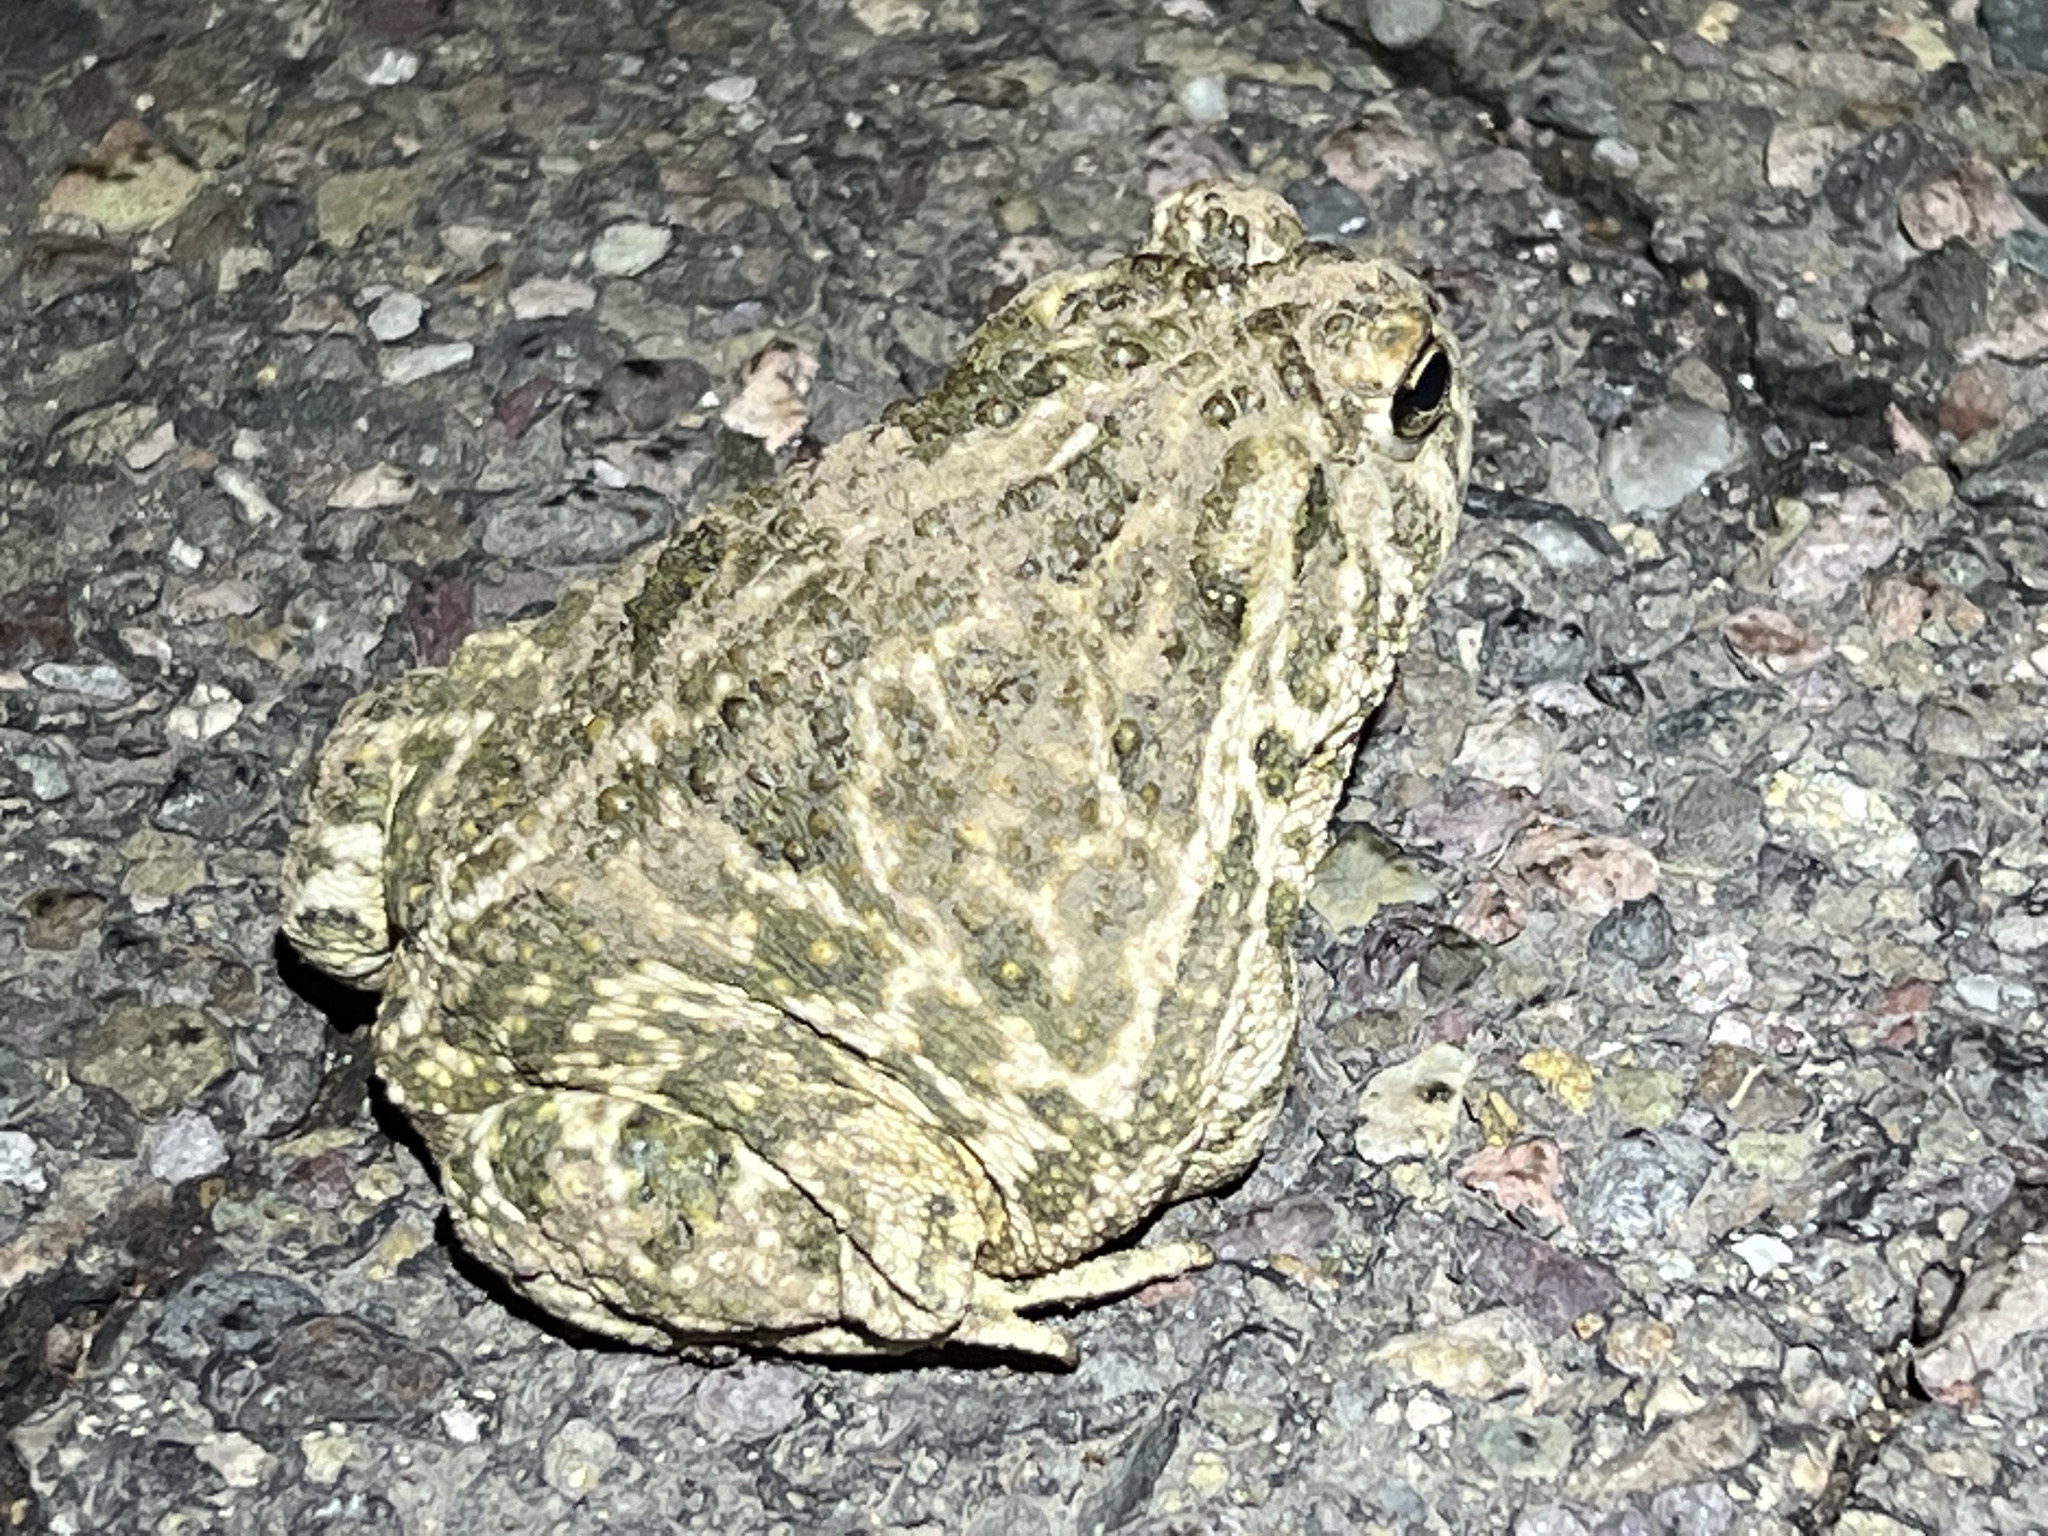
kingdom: Animalia
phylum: Chordata
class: Amphibia
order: Anura
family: Bufonidae
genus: Anaxyrus
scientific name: Anaxyrus cognatus
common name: Great plains toad
